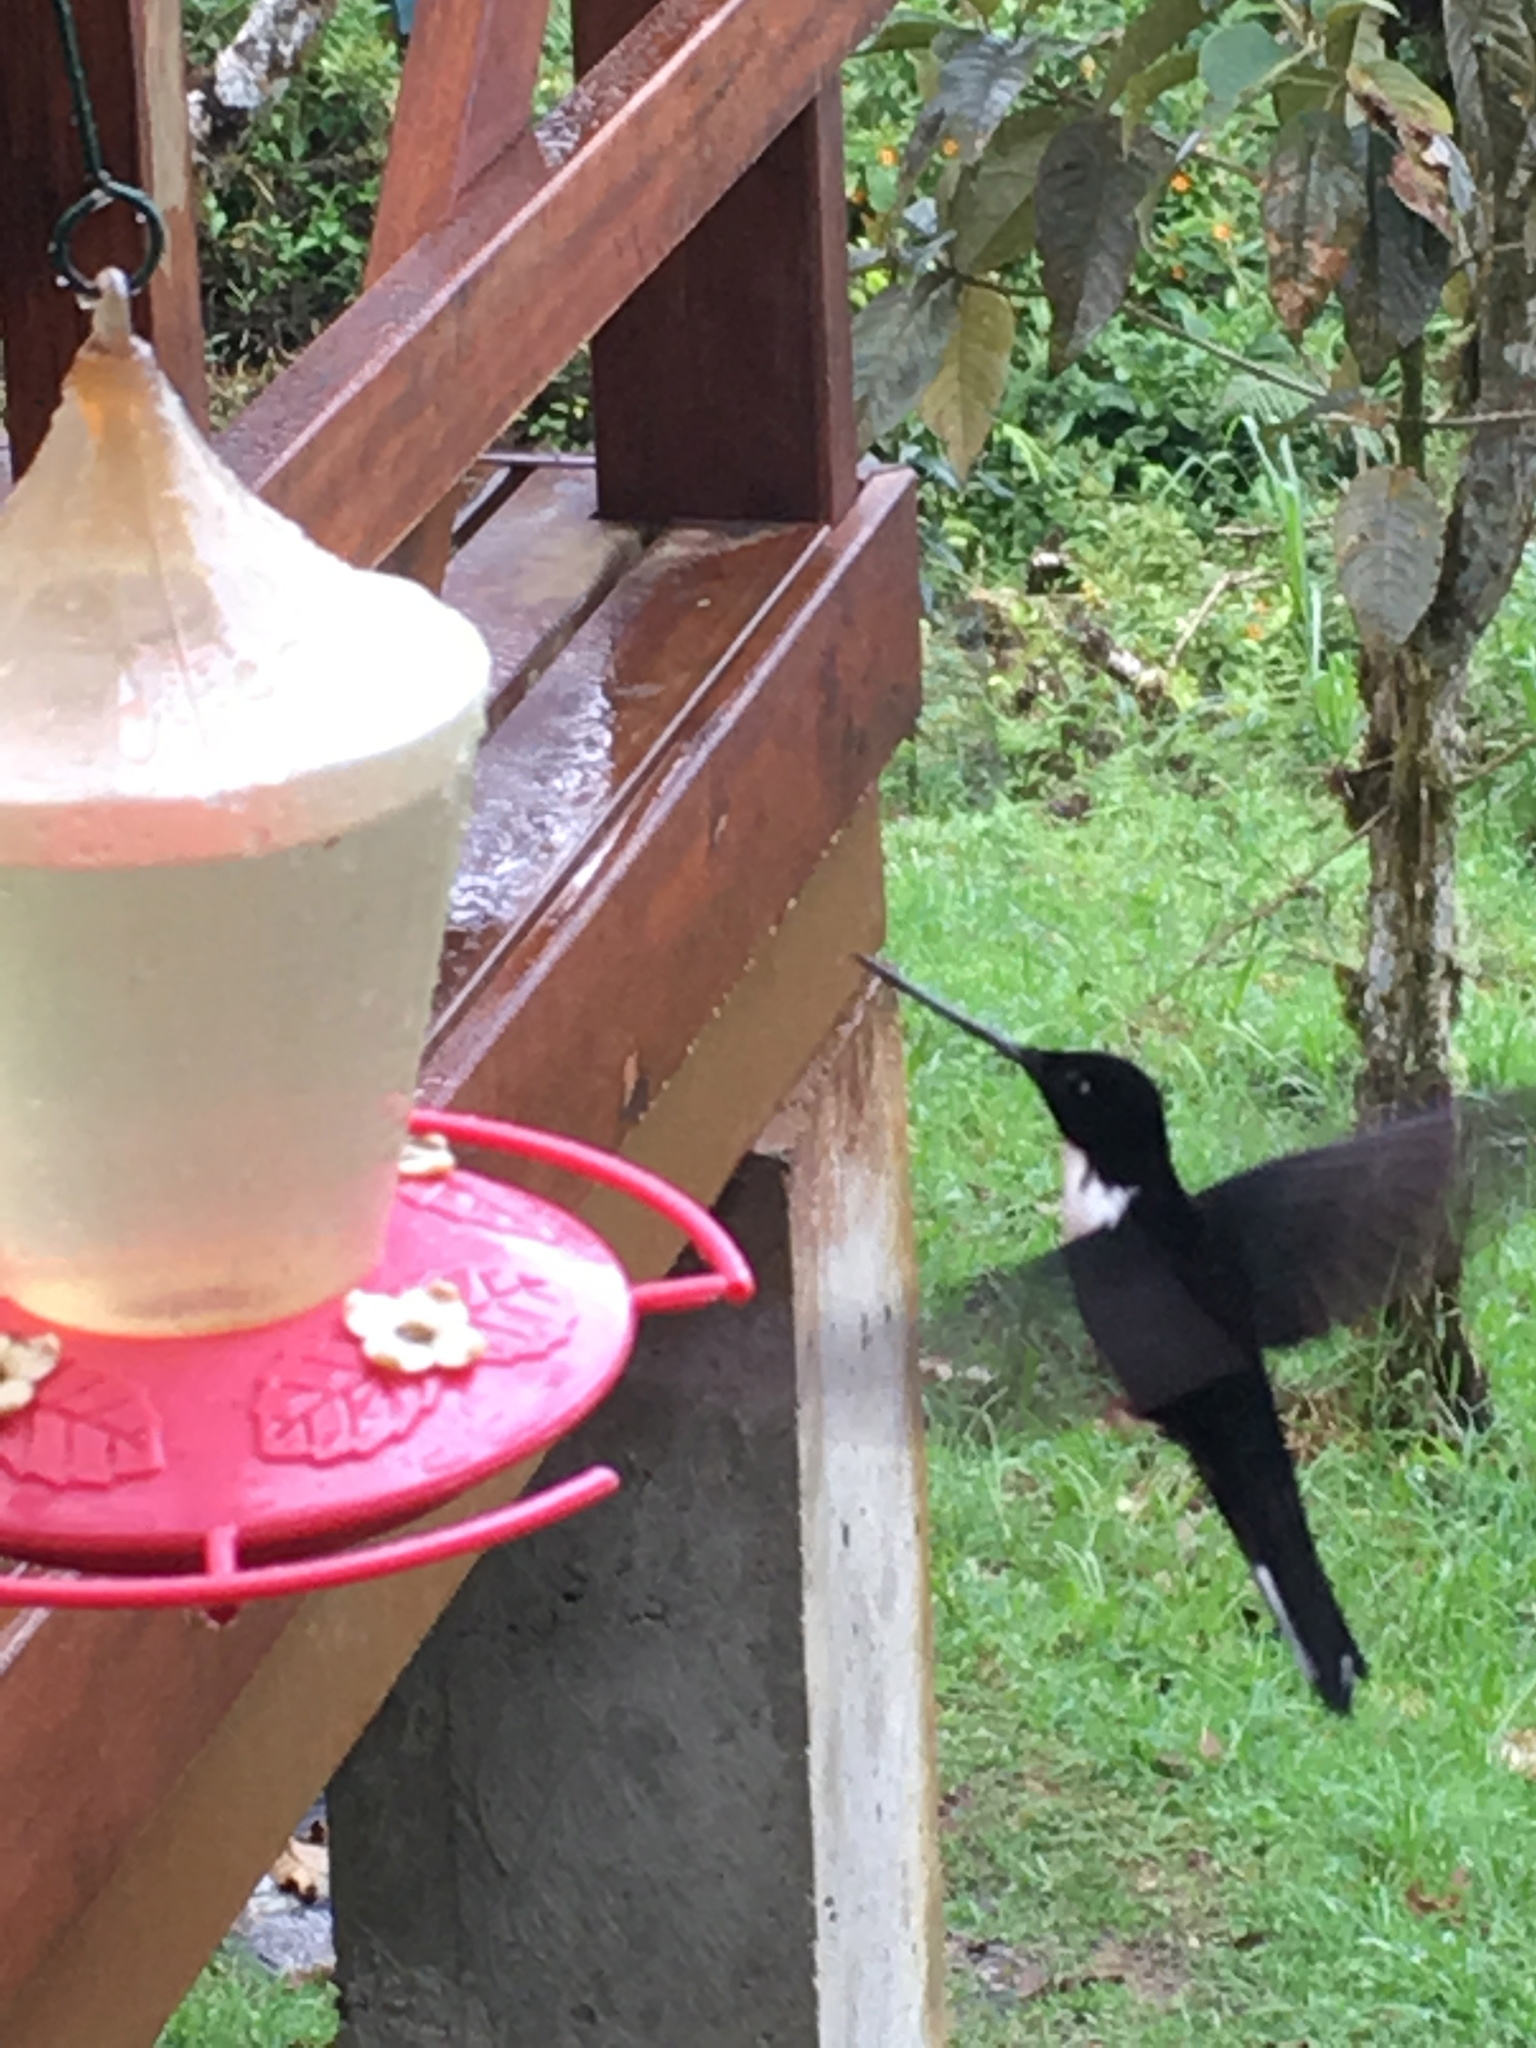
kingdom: Animalia
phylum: Chordata
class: Aves
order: Apodiformes
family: Trochilidae
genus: Coeligena
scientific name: Coeligena torquata
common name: Collared inca
